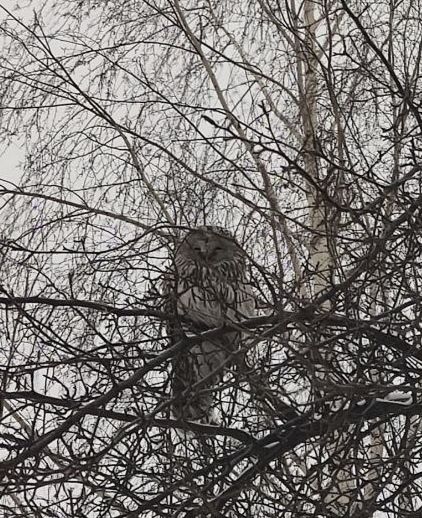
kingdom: Animalia
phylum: Chordata
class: Aves
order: Strigiformes
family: Strigidae
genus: Strix
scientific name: Strix uralensis
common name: Ural owl
